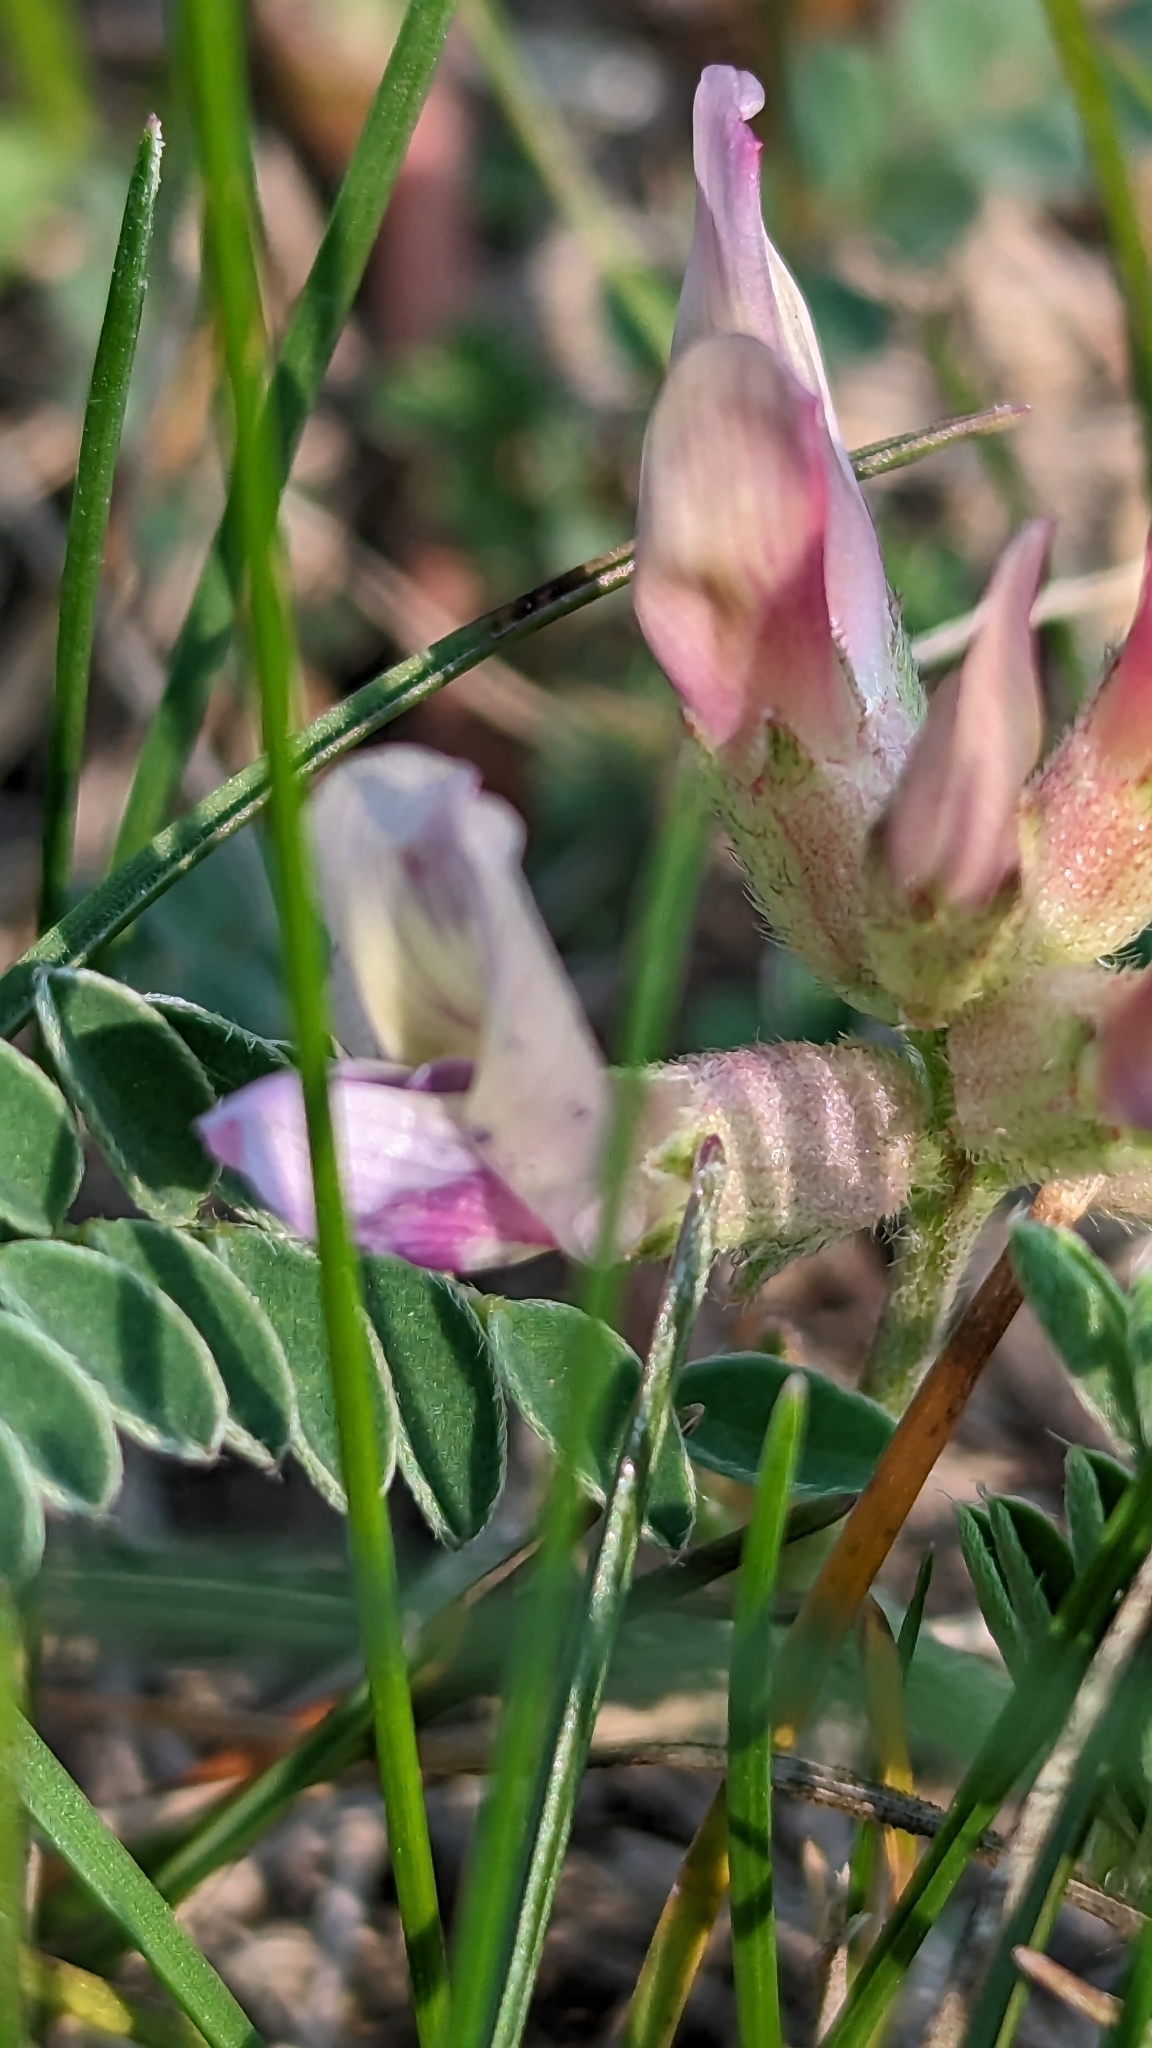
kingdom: Plantae
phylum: Tracheophyta
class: Magnoliopsida
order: Fabales
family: Fabaceae
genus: Astragalus
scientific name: Astragalus crassicarpus
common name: Ground-plum milk-vetch
